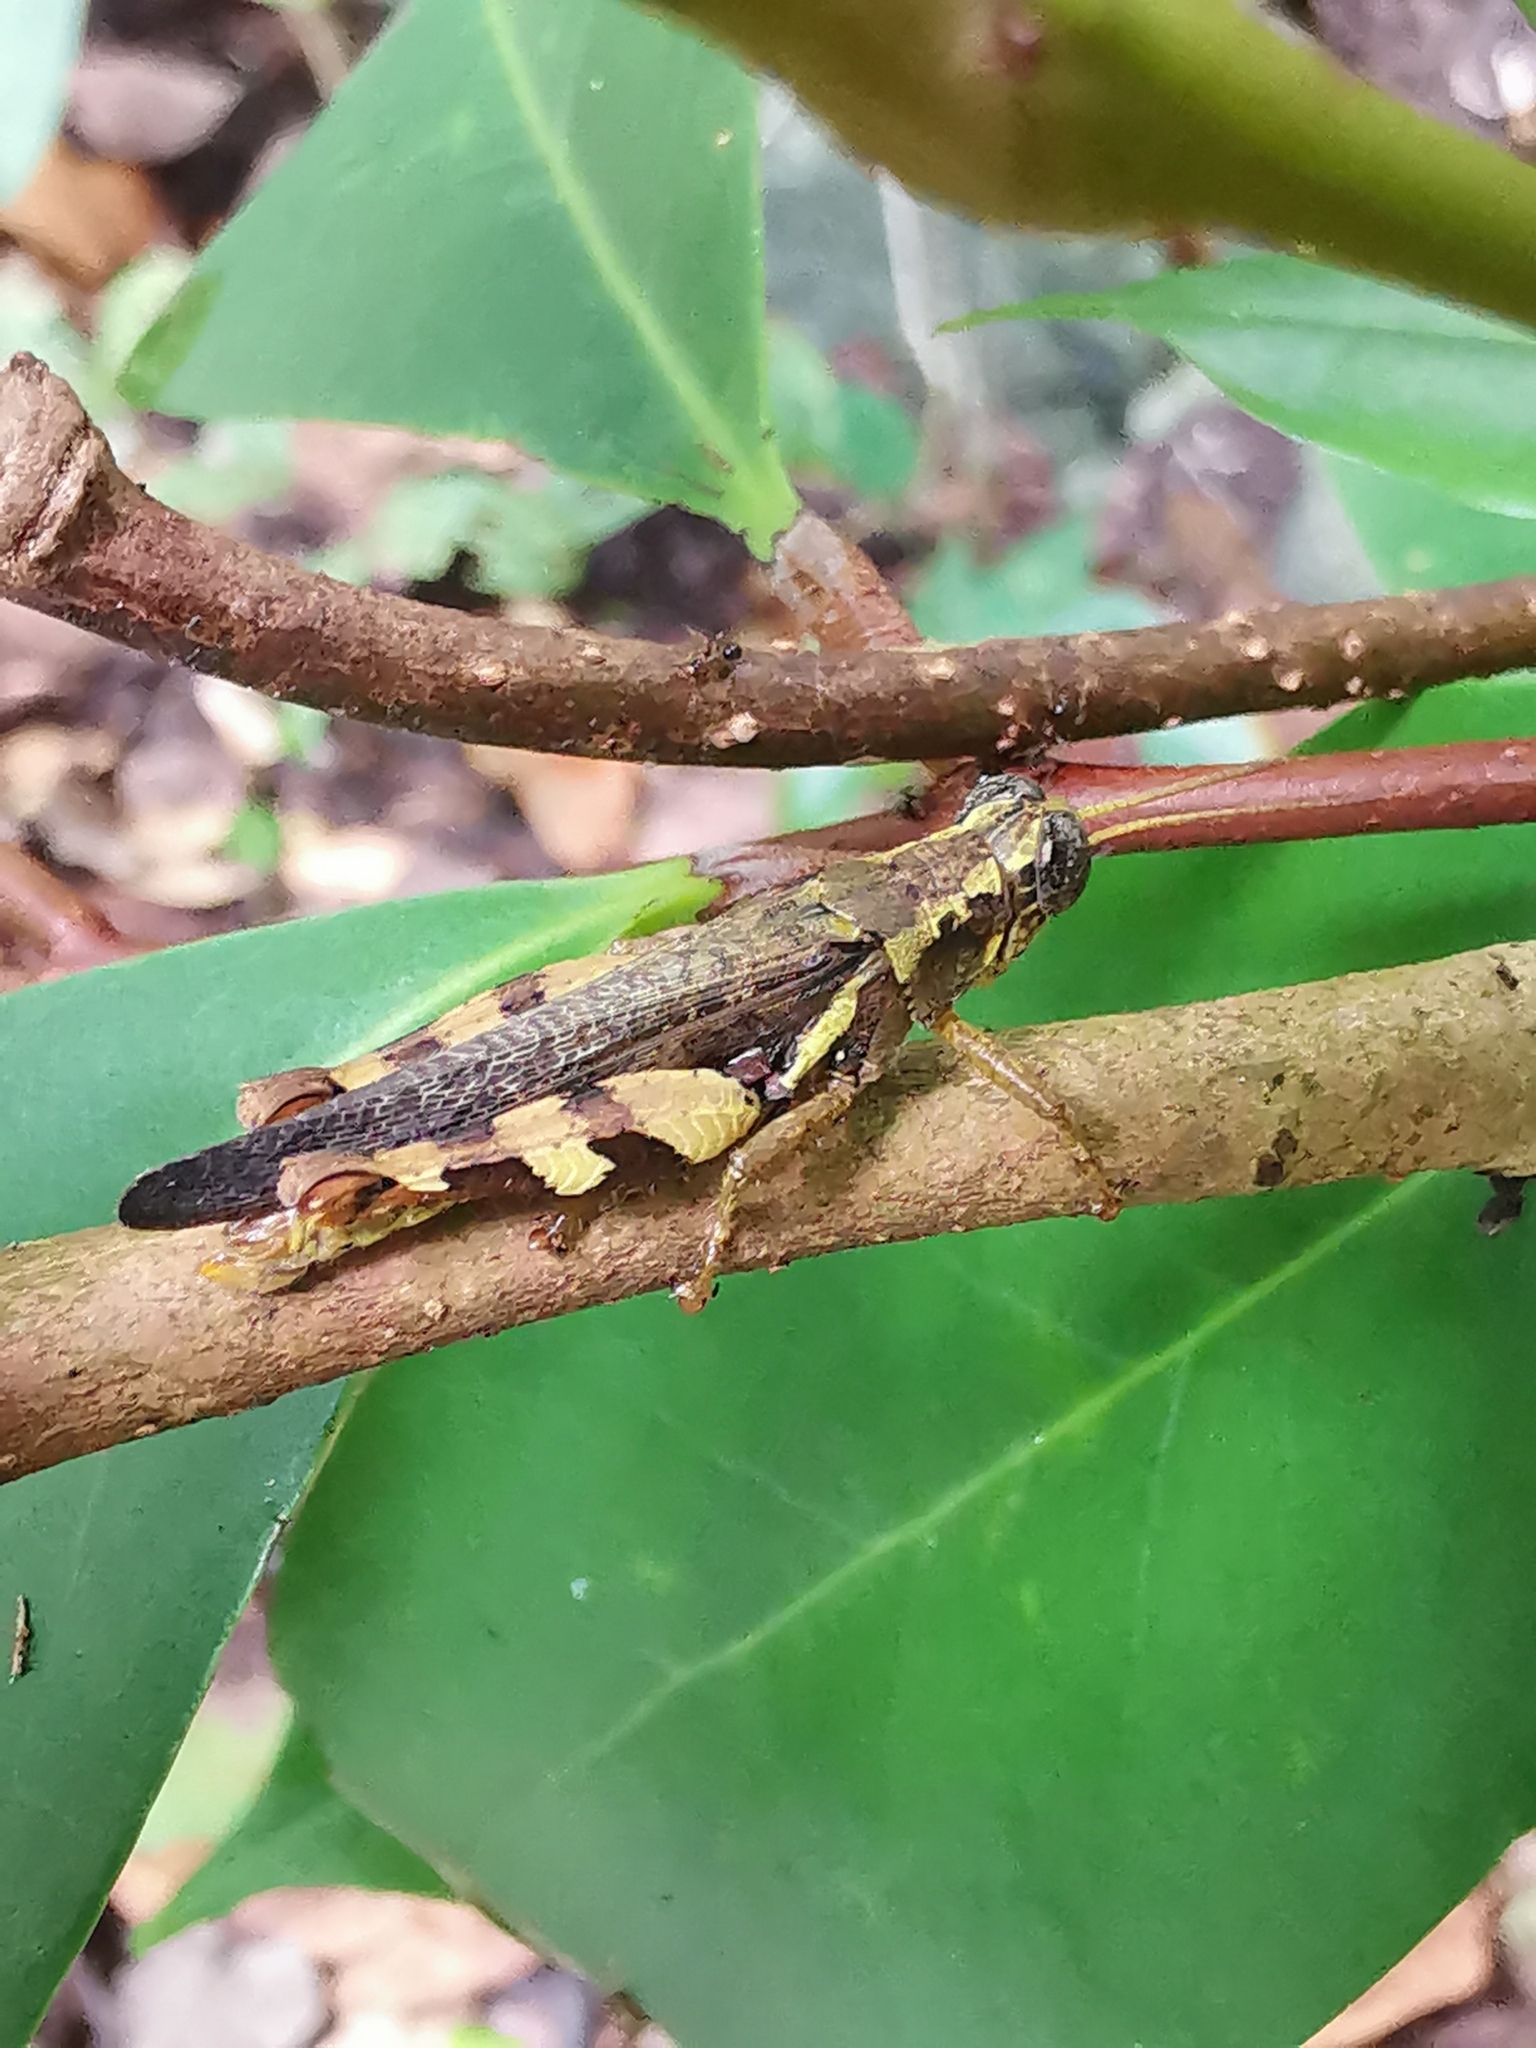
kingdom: Animalia
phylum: Arthropoda
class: Insecta
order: Orthoptera
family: Acrididae
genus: Xenocatantops
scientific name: Xenocatantops humile
